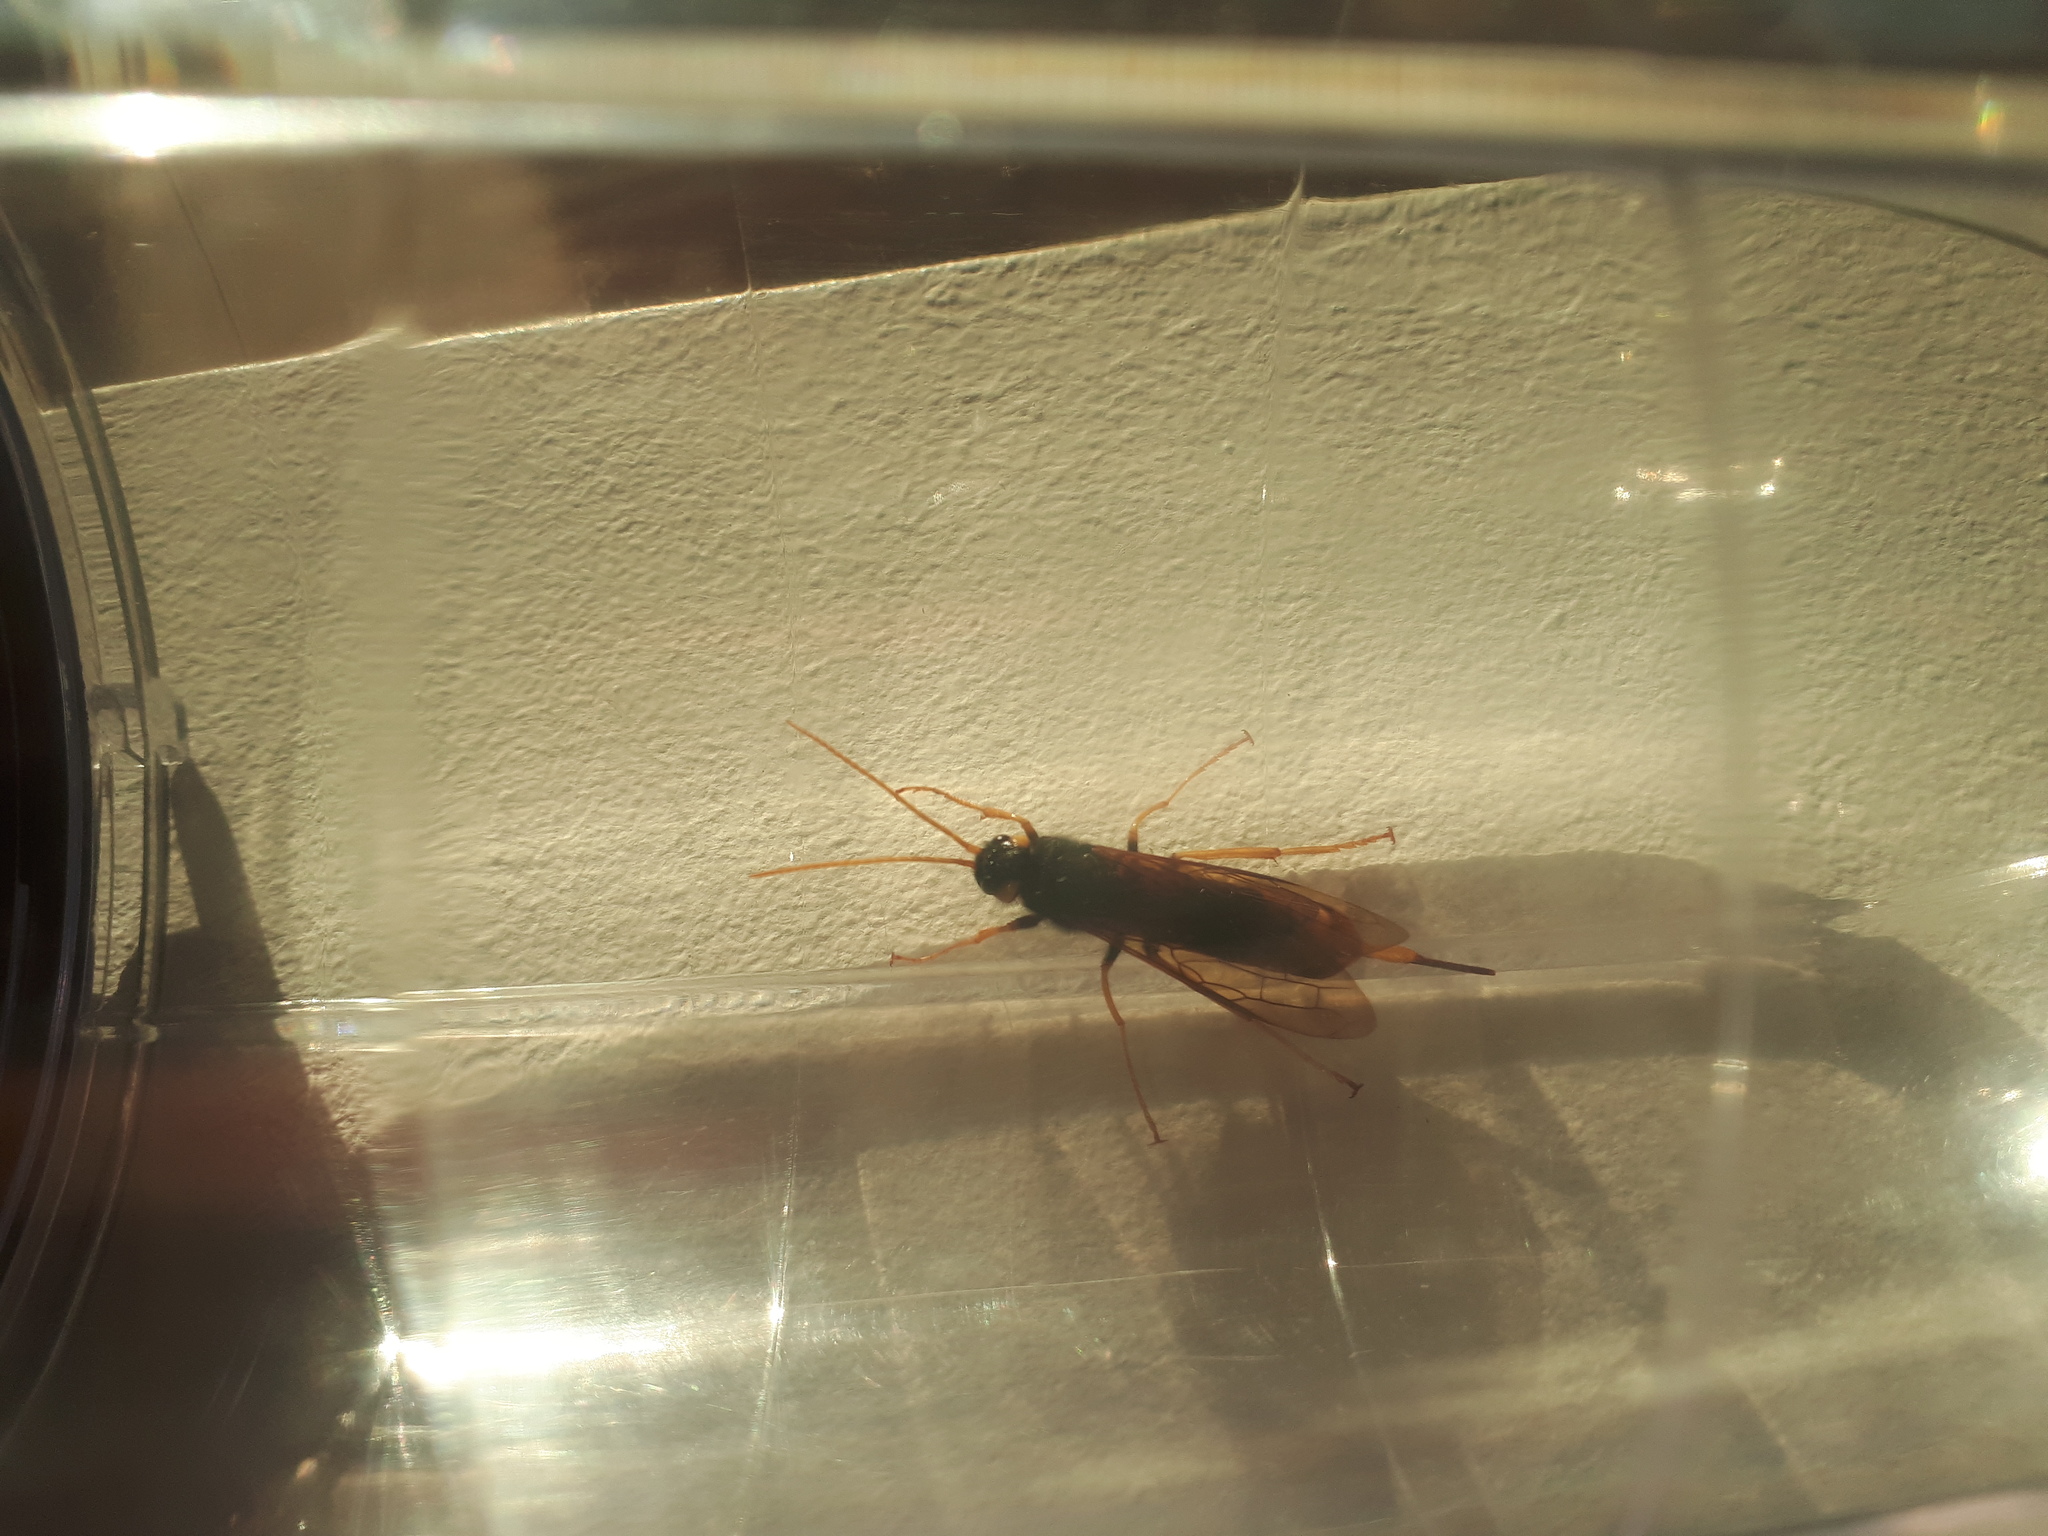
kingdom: Animalia
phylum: Arthropoda
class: Insecta
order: Hymenoptera
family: Siricidae
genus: Urocerus
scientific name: Urocerus gigas
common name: Giant woodwasp
